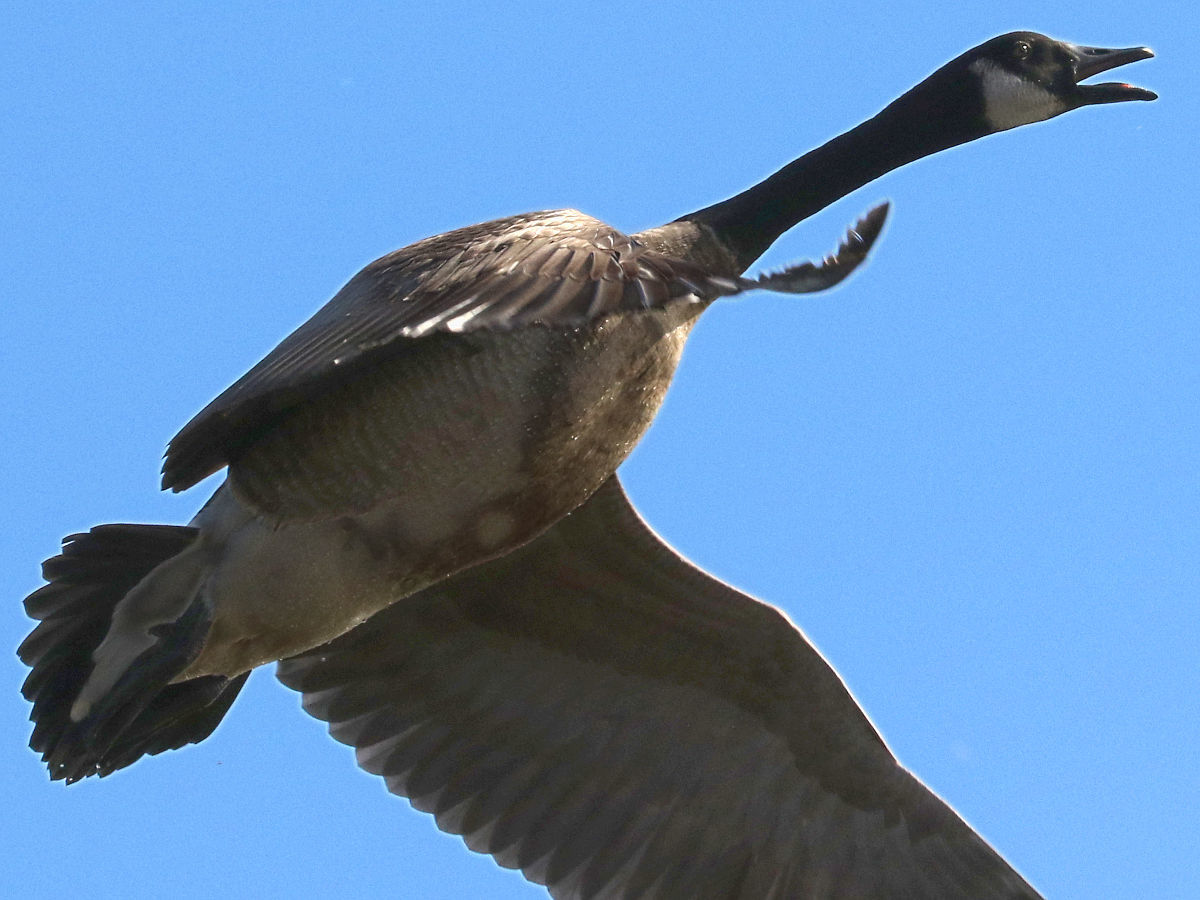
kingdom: Animalia
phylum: Chordata
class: Aves
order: Anseriformes
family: Anatidae
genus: Branta
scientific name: Branta canadensis
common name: Canada goose
